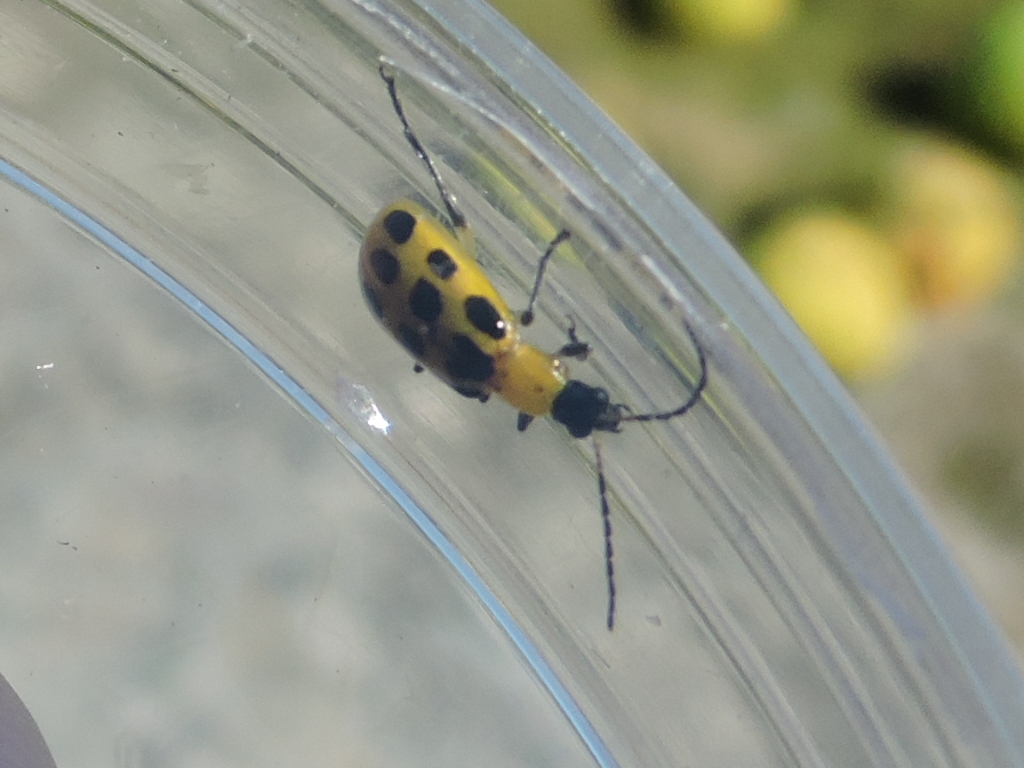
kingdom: Animalia
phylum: Arthropoda
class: Insecta
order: Coleoptera
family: Chrysomelidae
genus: Diabrotica
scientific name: Diabrotica undecimpunctata
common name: Spotted cucumber beetle
